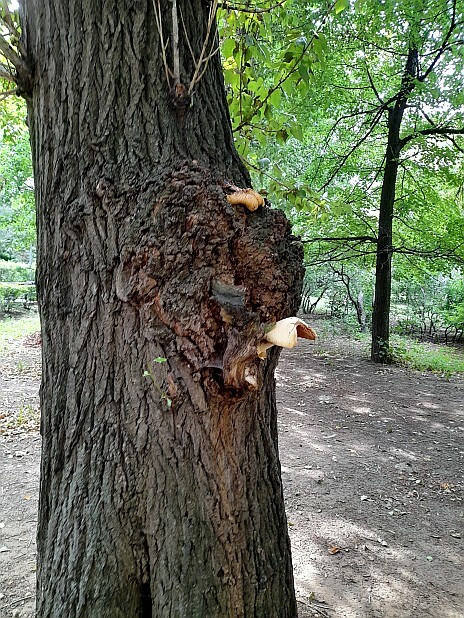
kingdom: Fungi
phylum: Basidiomycota
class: Agaricomycetes
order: Agaricales
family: Pluteaceae
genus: Volvariella
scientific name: Volvariella bombycina
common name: Silky rosegill
